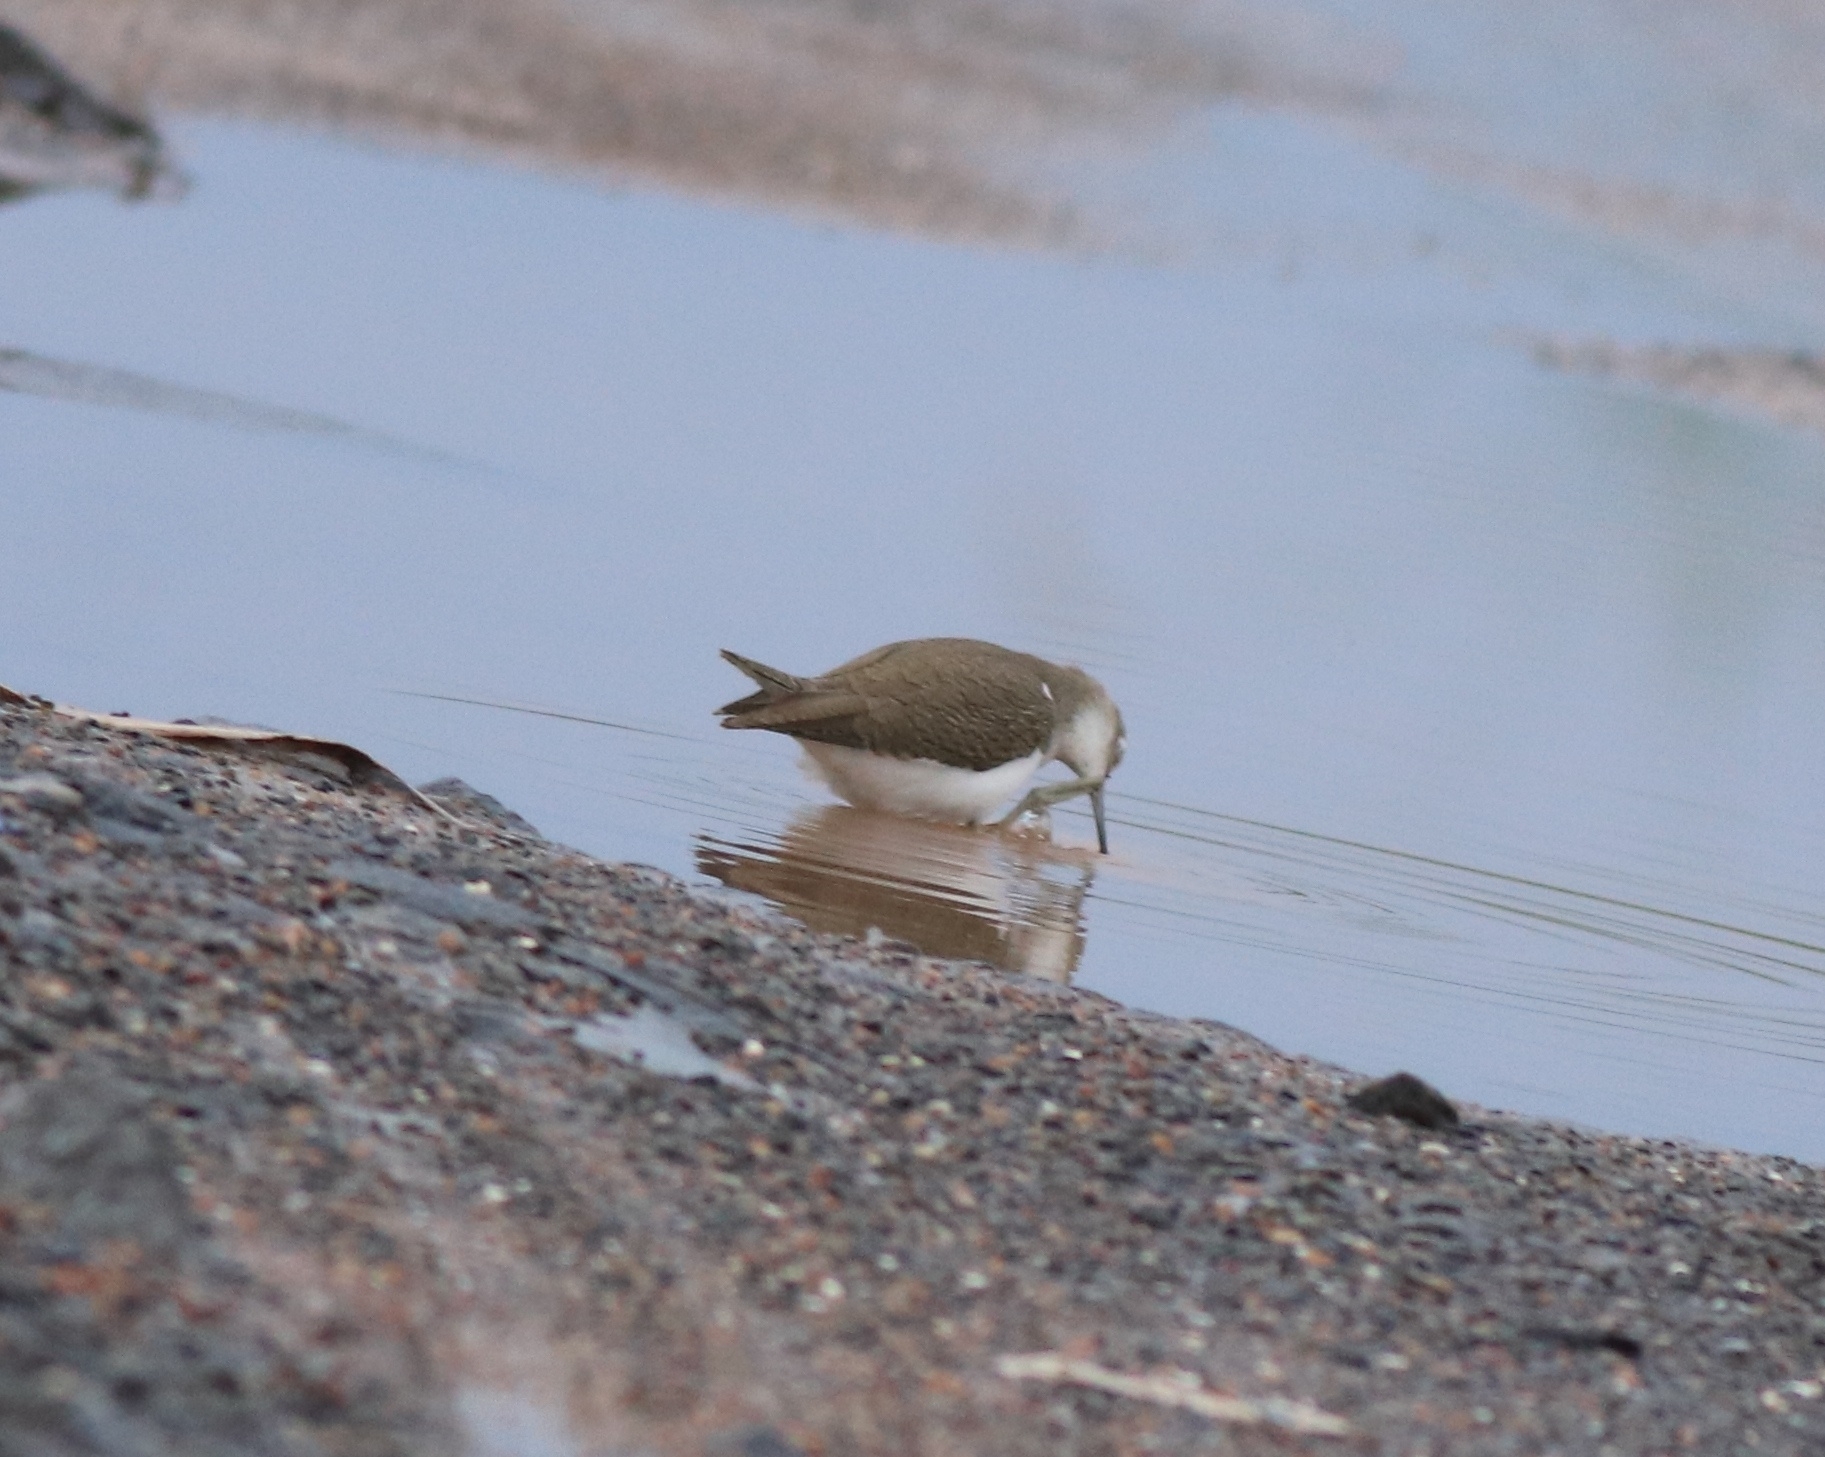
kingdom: Animalia
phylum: Chordata
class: Aves
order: Charadriiformes
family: Scolopacidae
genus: Actitis
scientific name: Actitis hypoleucos
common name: Common sandpiper
